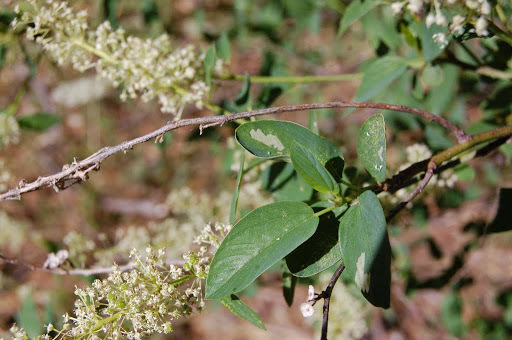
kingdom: Plantae
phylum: Tracheophyta
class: Magnoliopsida
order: Rosales
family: Rhamnaceae
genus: Ceanothus
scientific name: Ceanothus integerrimus
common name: Deerbrush ceanothus
